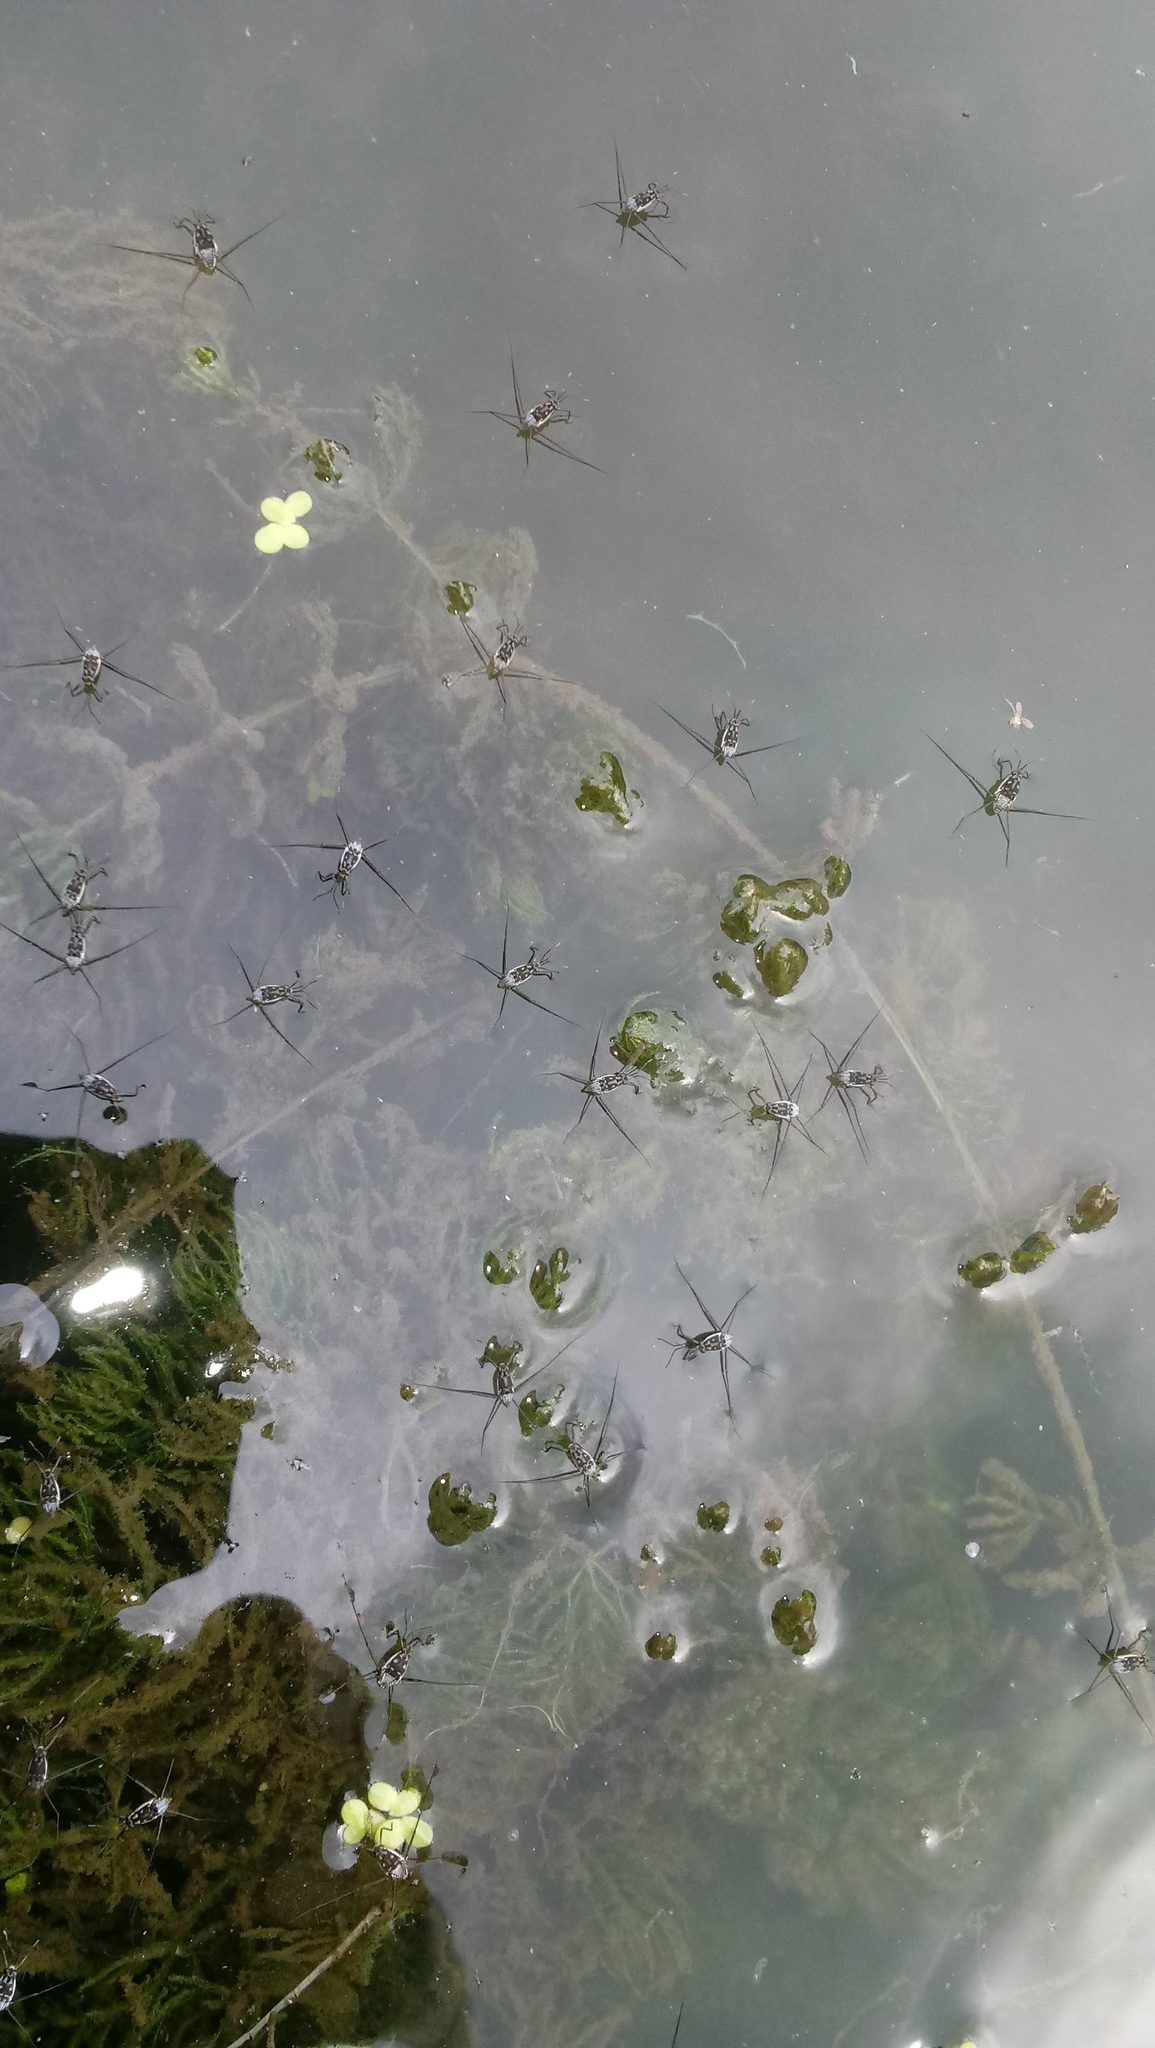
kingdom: Animalia
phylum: Arthropoda
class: Insecta
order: Hemiptera
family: Gerridae
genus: Trepobates
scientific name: Trepobates
